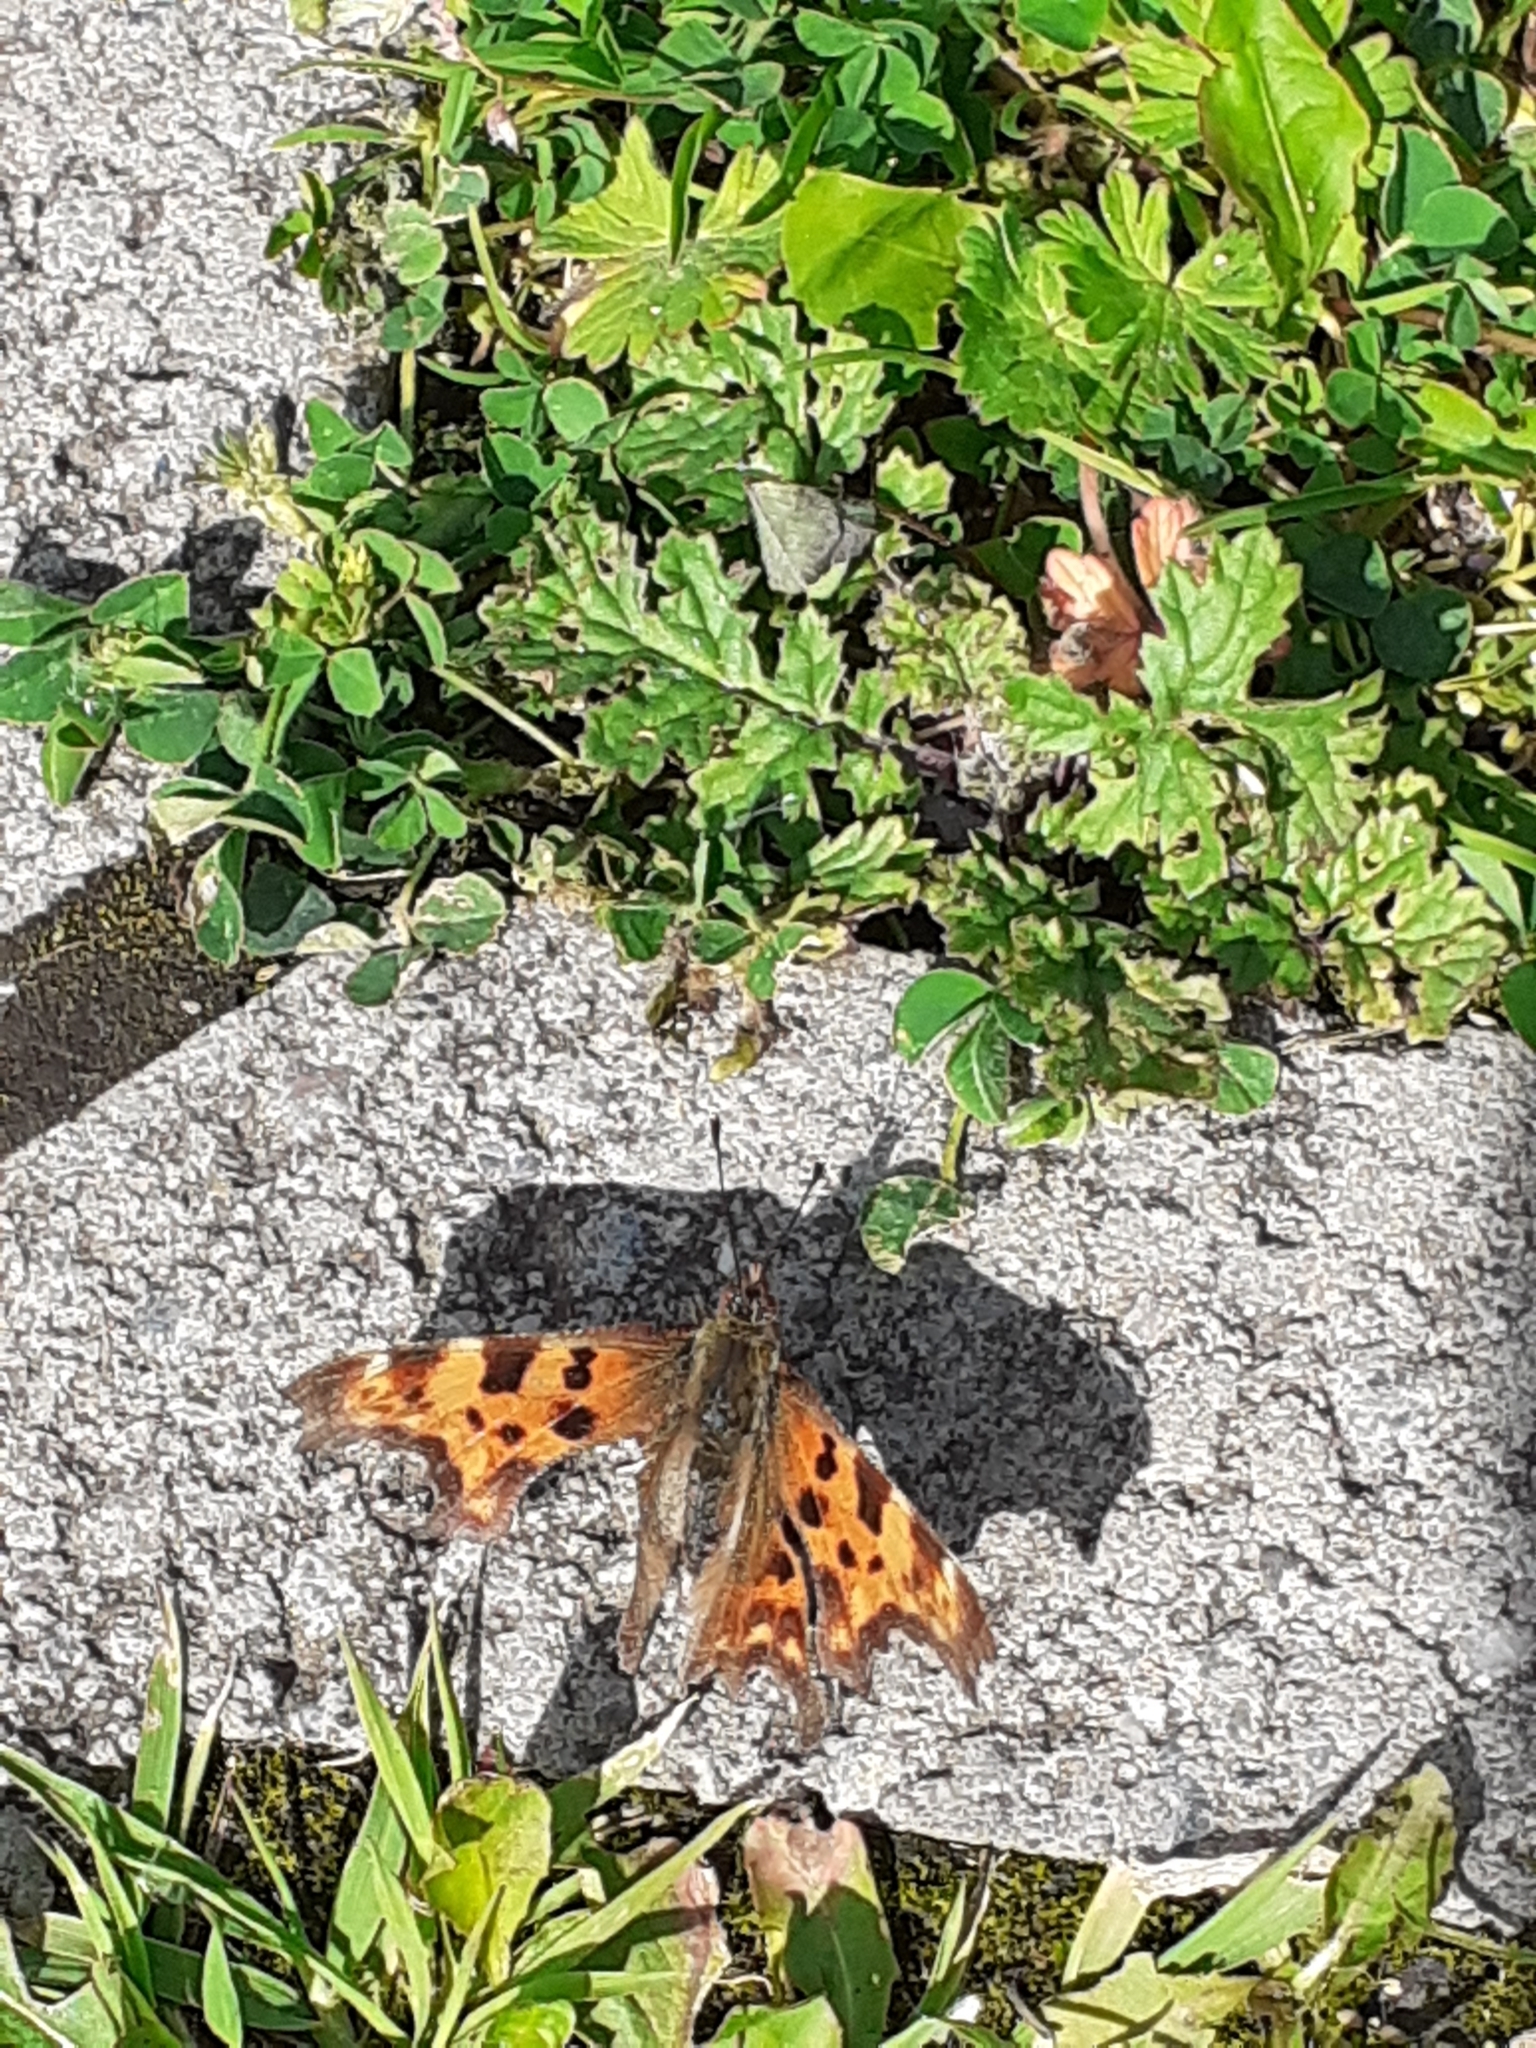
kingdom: Animalia
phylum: Arthropoda
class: Insecta
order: Lepidoptera
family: Nymphalidae
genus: Polygonia
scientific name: Polygonia c-album
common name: Comma
